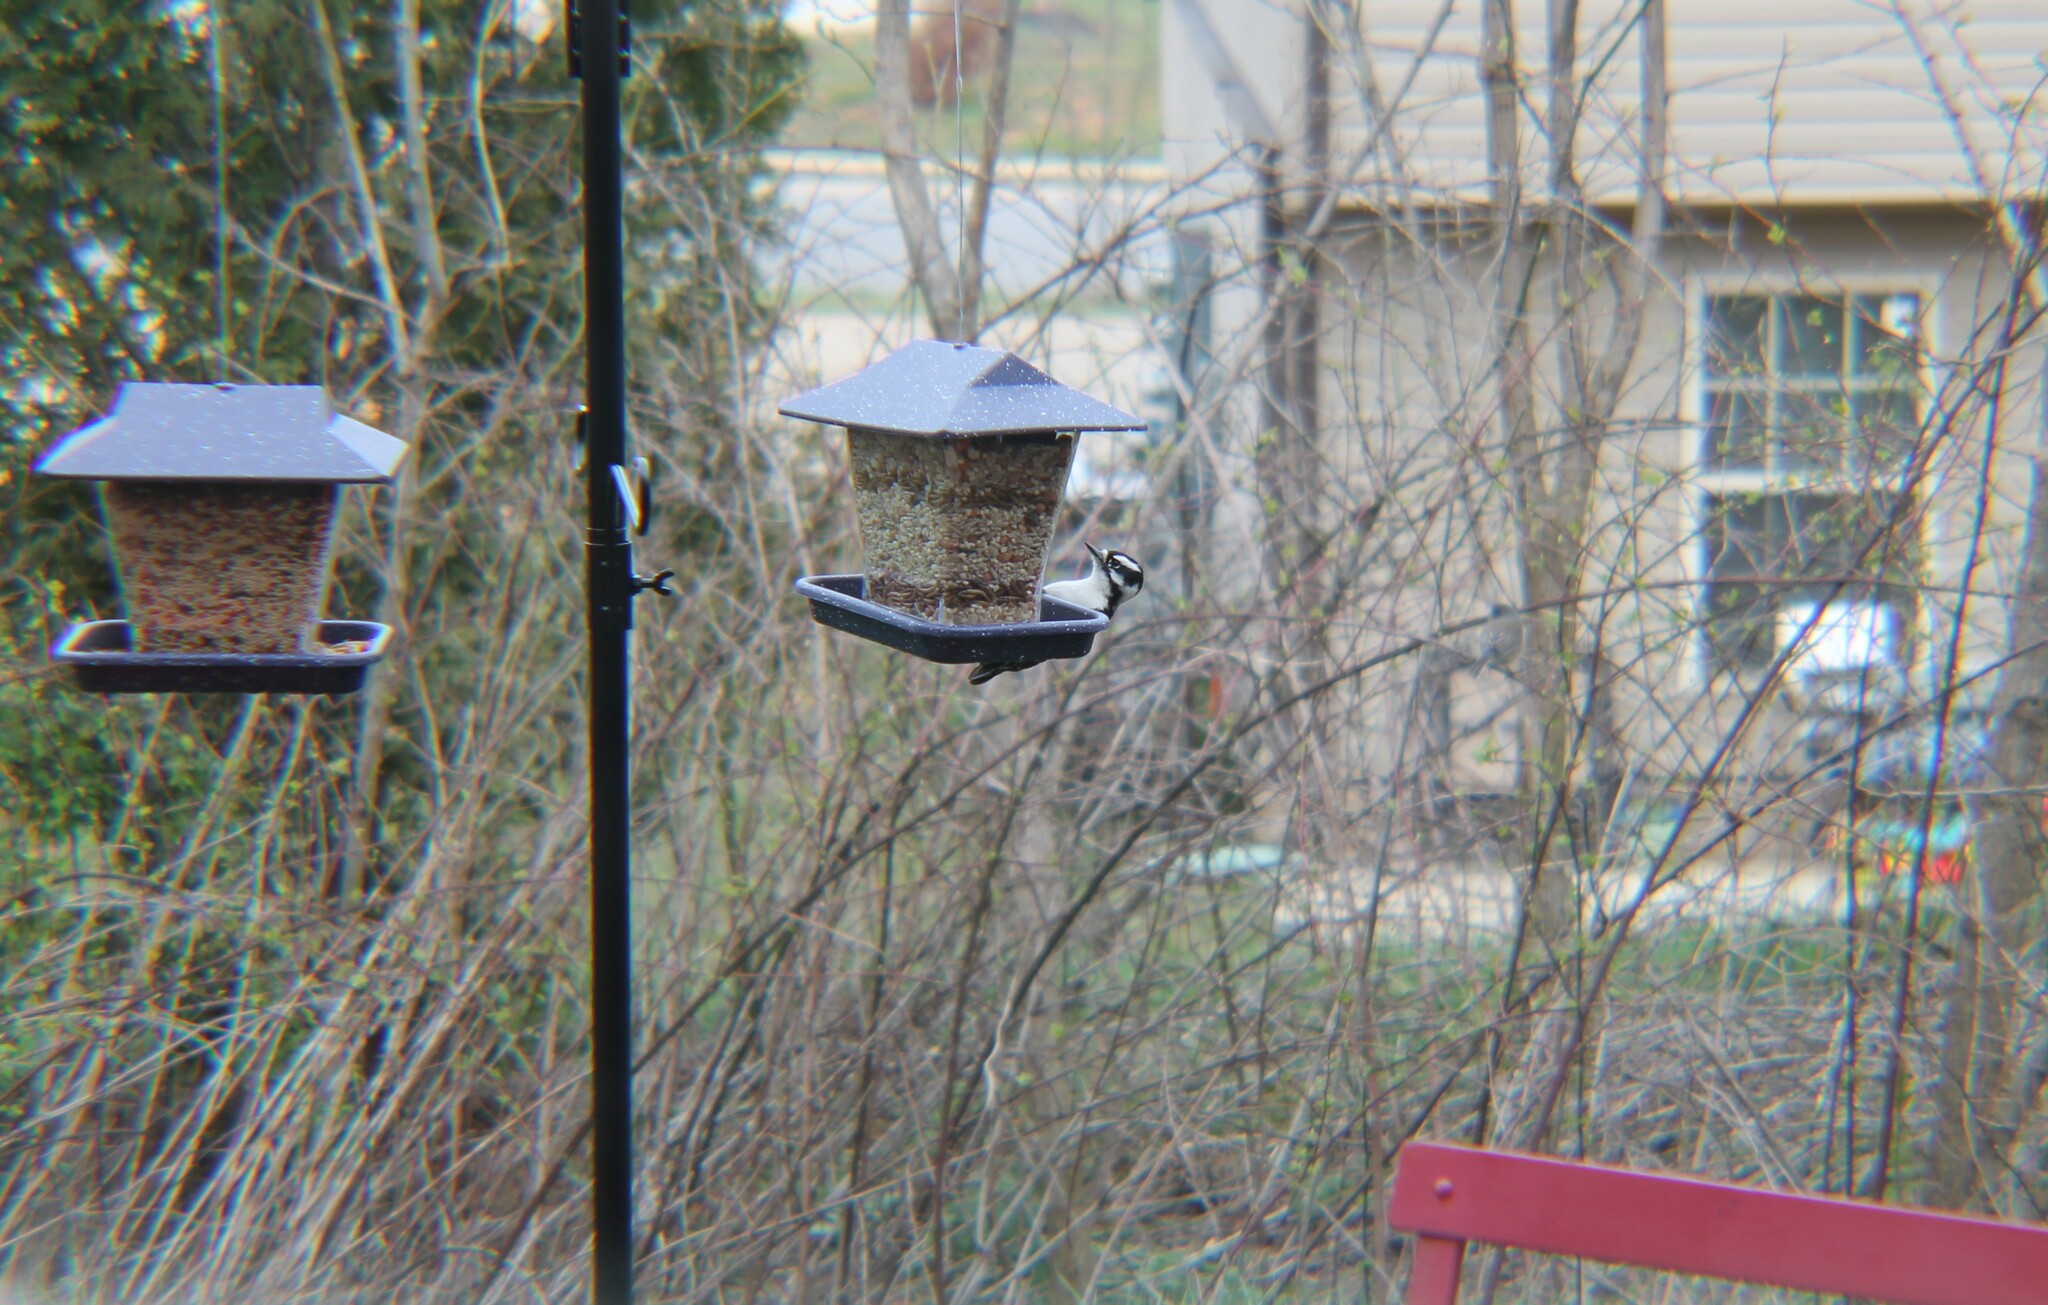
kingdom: Animalia
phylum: Chordata
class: Aves
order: Piciformes
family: Picidae
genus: Dryobates
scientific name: Dryobates pubescens
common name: Downy woodpecker
